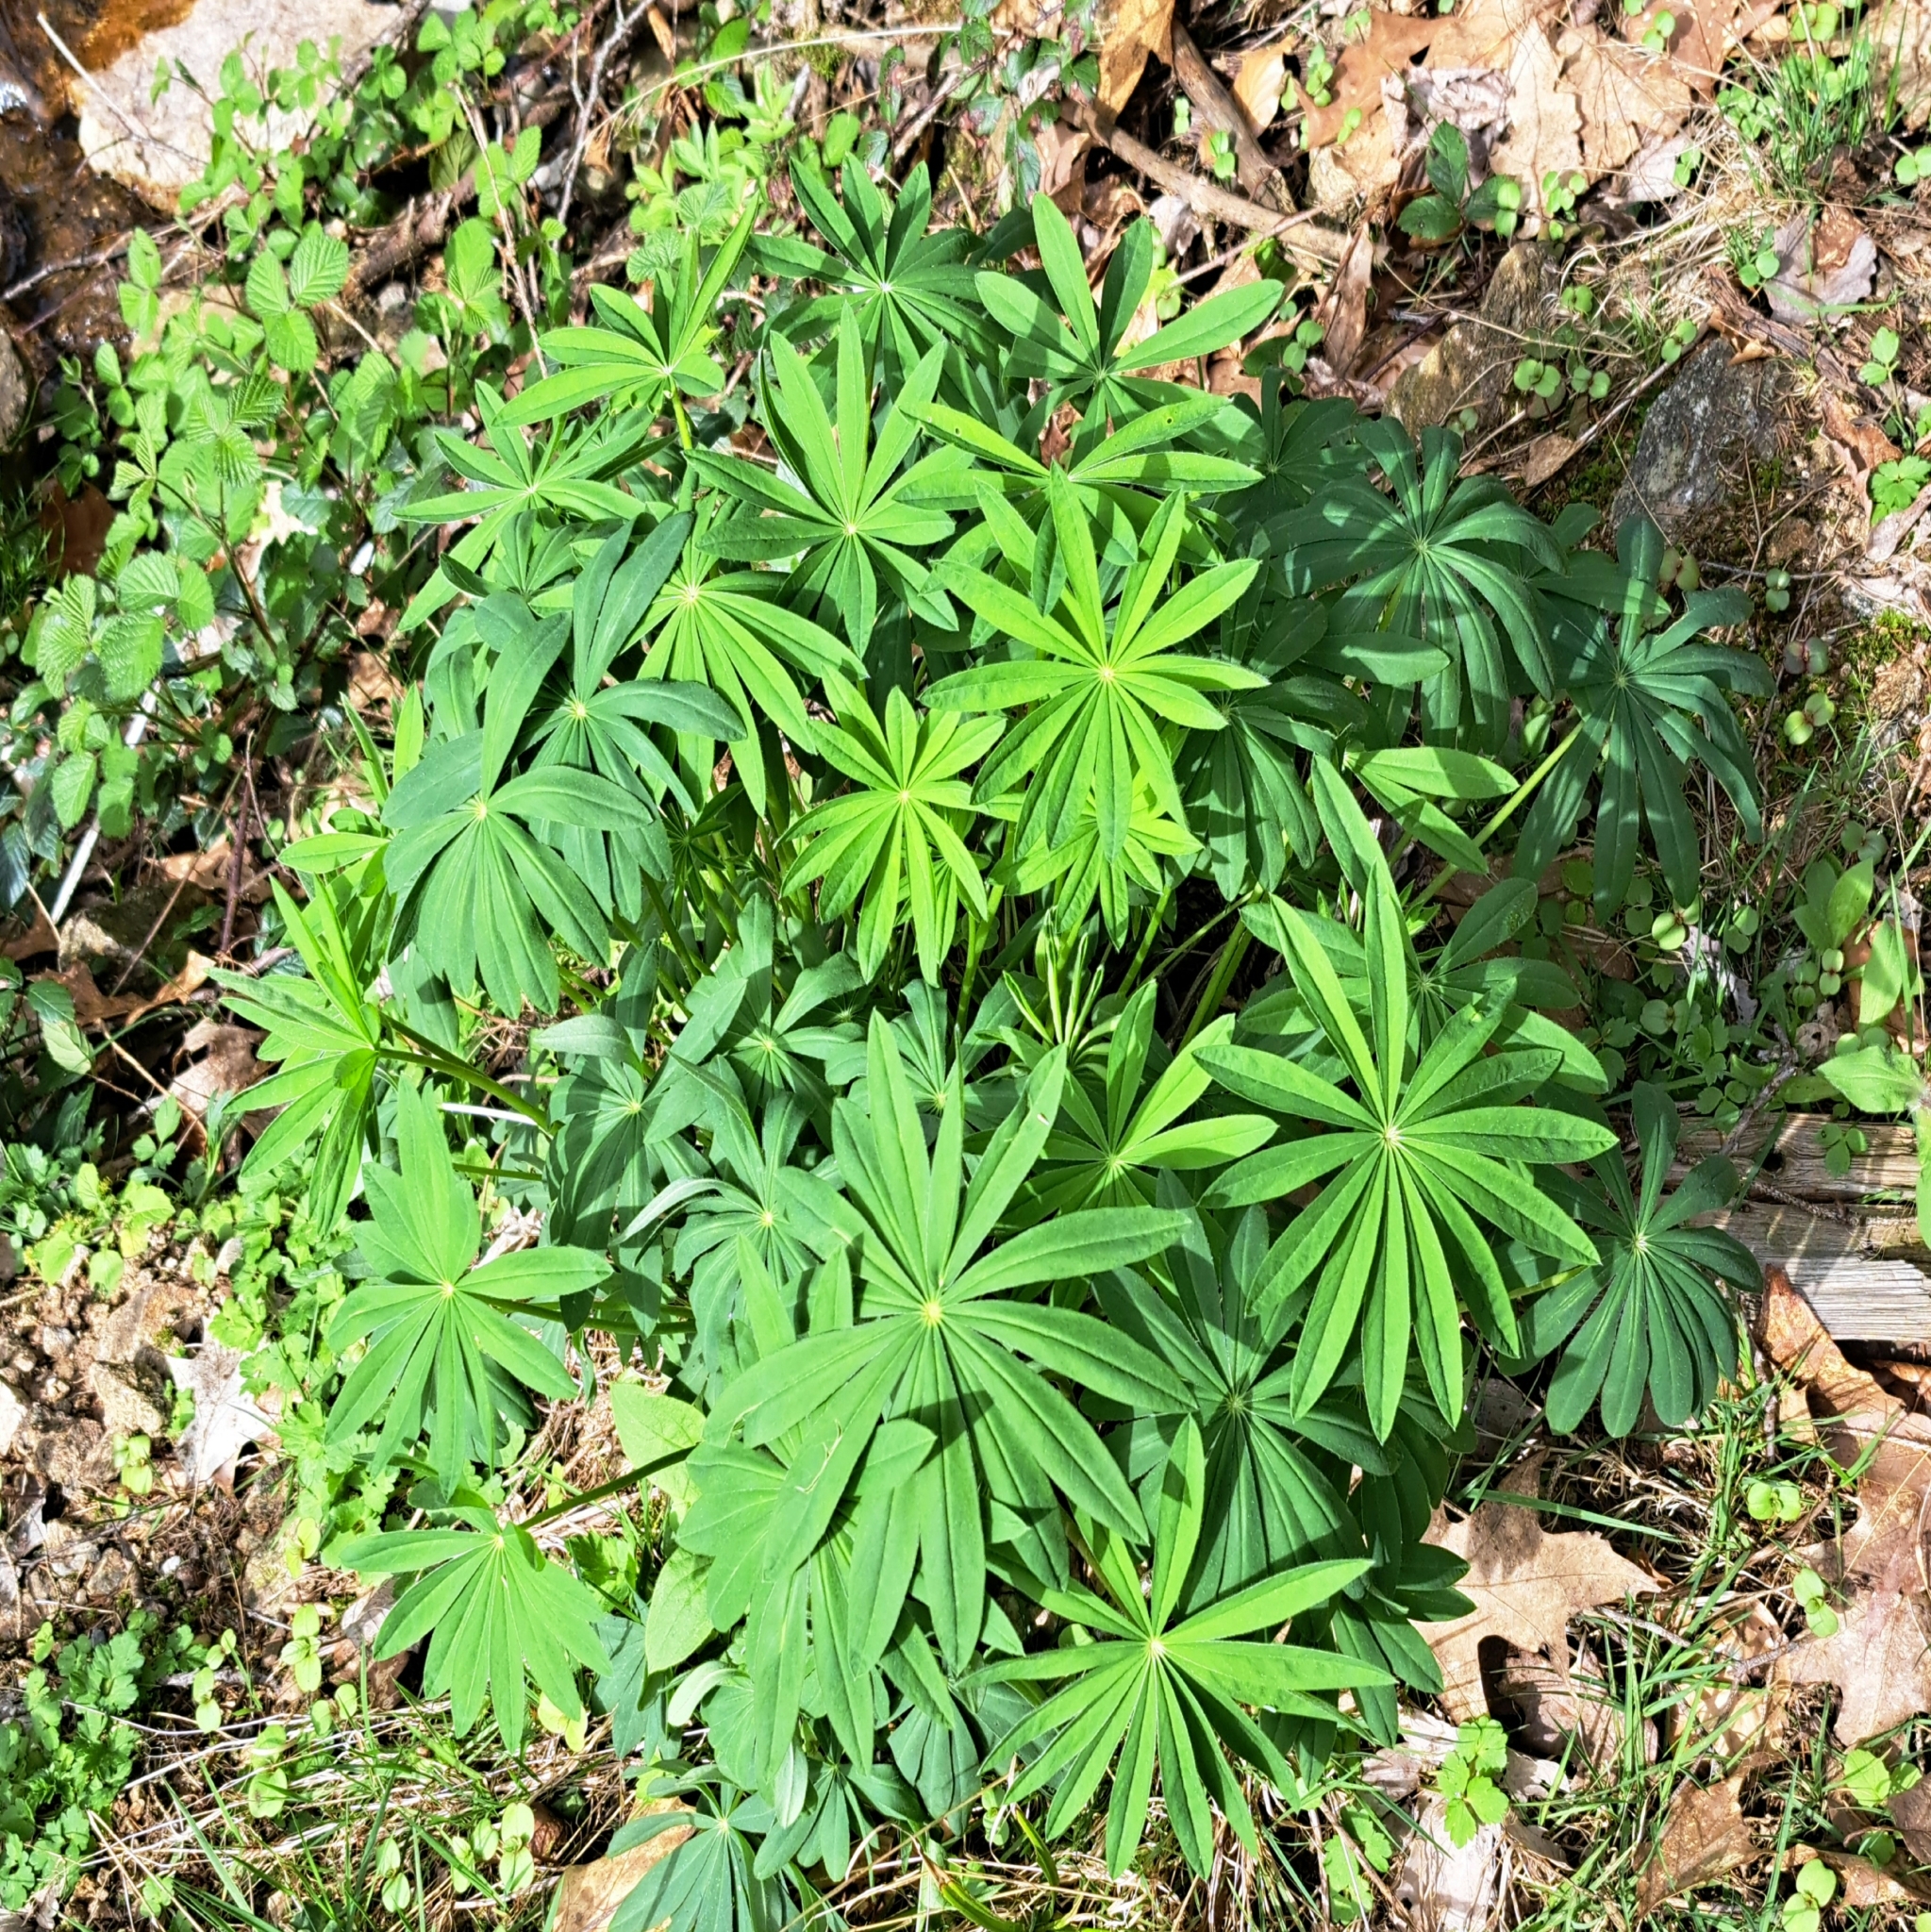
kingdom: Plantae
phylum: Tracheophyta
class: Magnoliopsida
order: Fabales
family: Fabaceae
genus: Lupinus
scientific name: Lupinus polyphyllus
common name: Garden lupin
